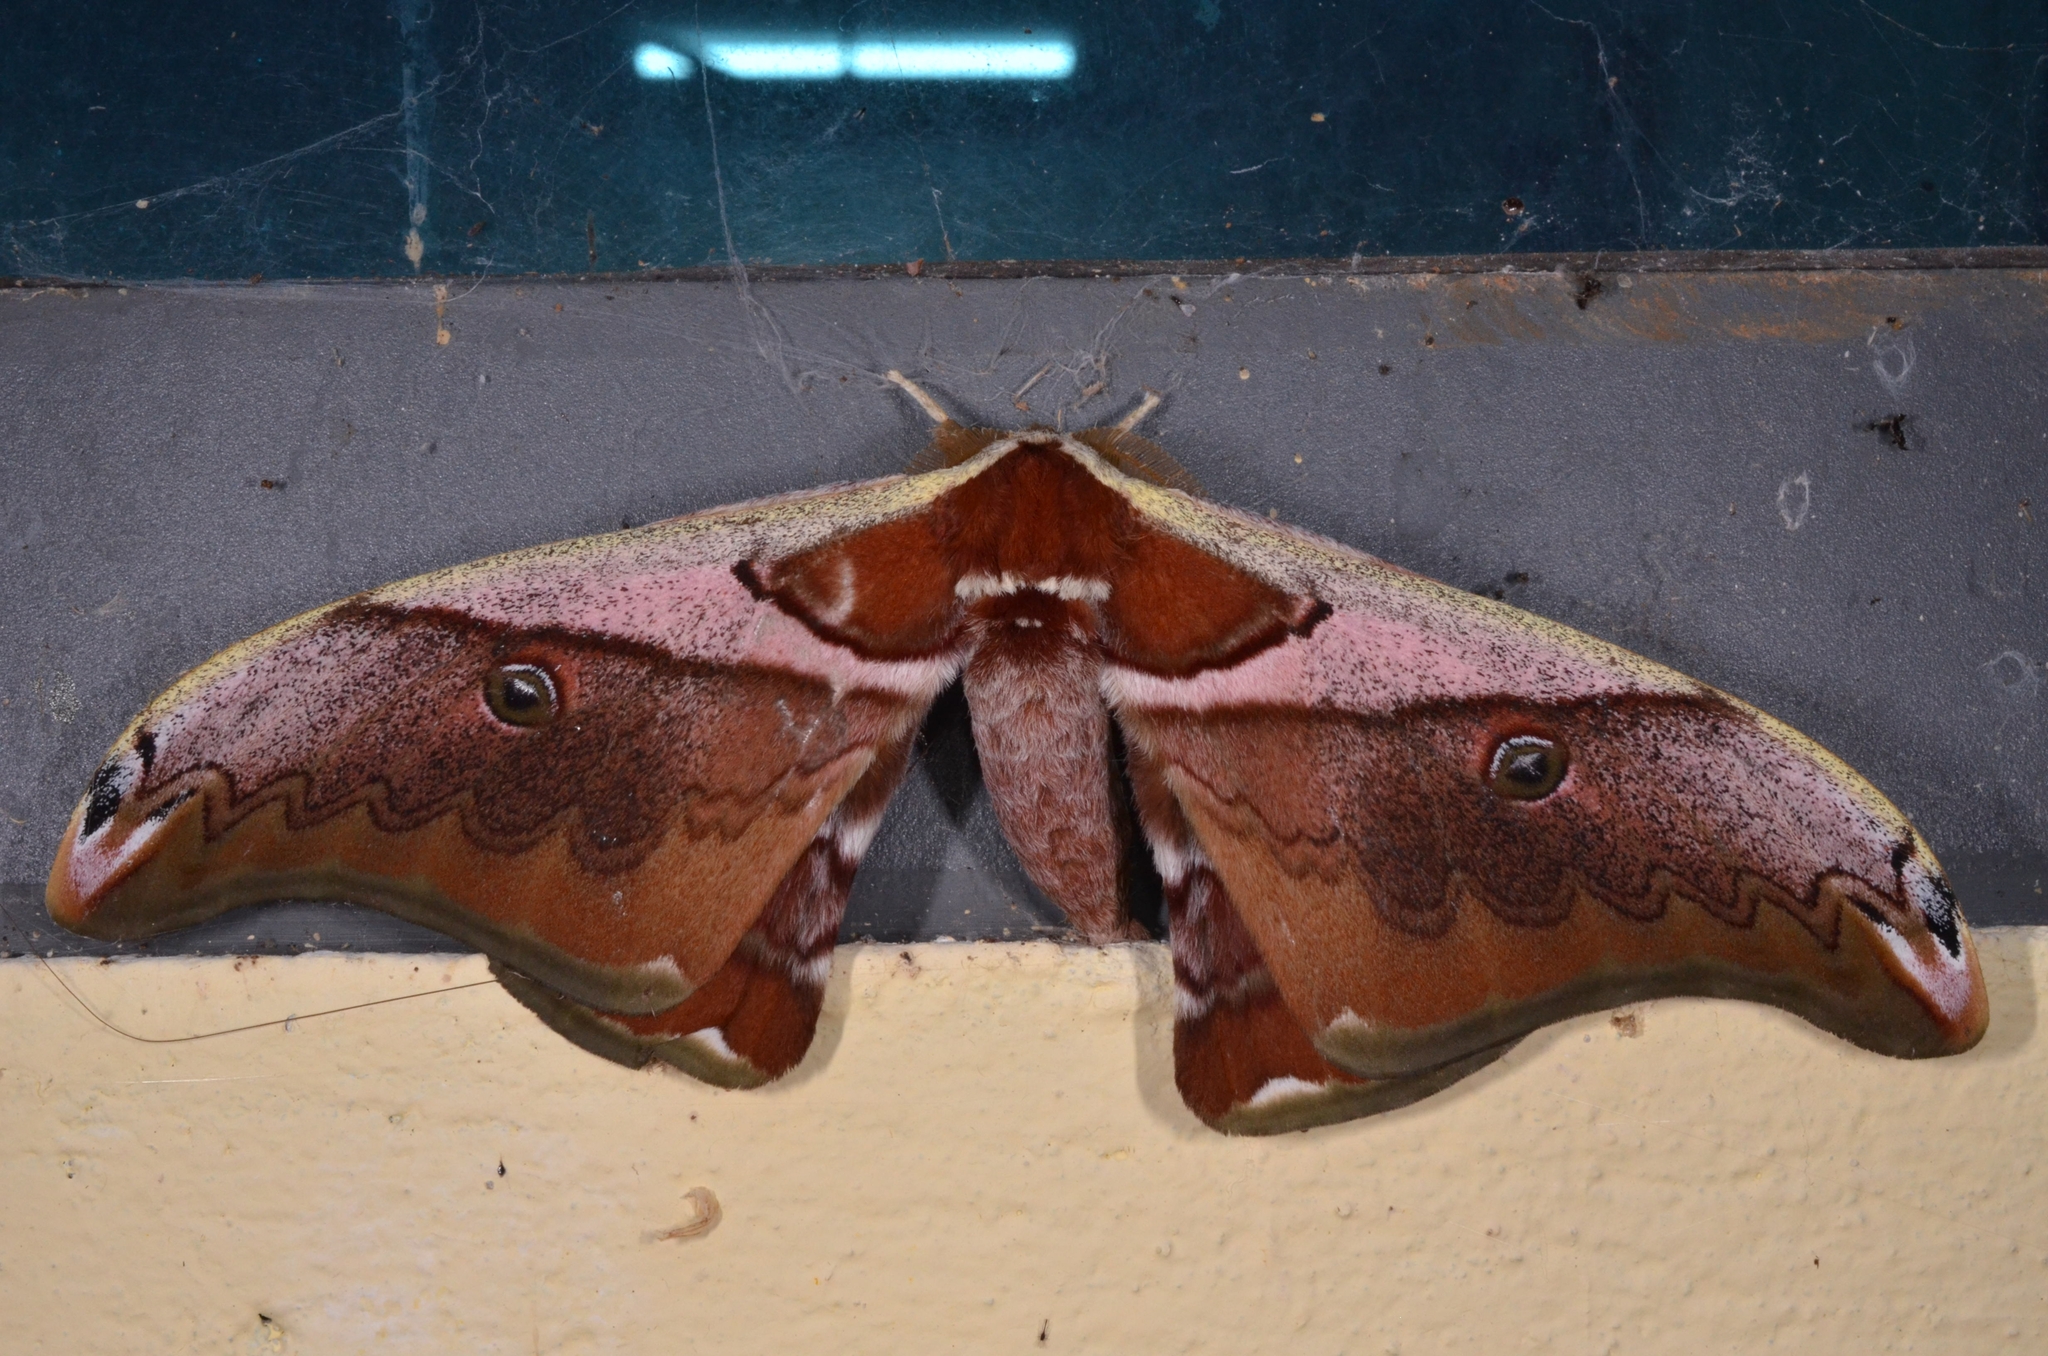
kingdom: Animalia
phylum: Arthropoda
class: Insecta
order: Lepidoptera
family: Saturniidae
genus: Saturnia
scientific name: Saturnia simla
